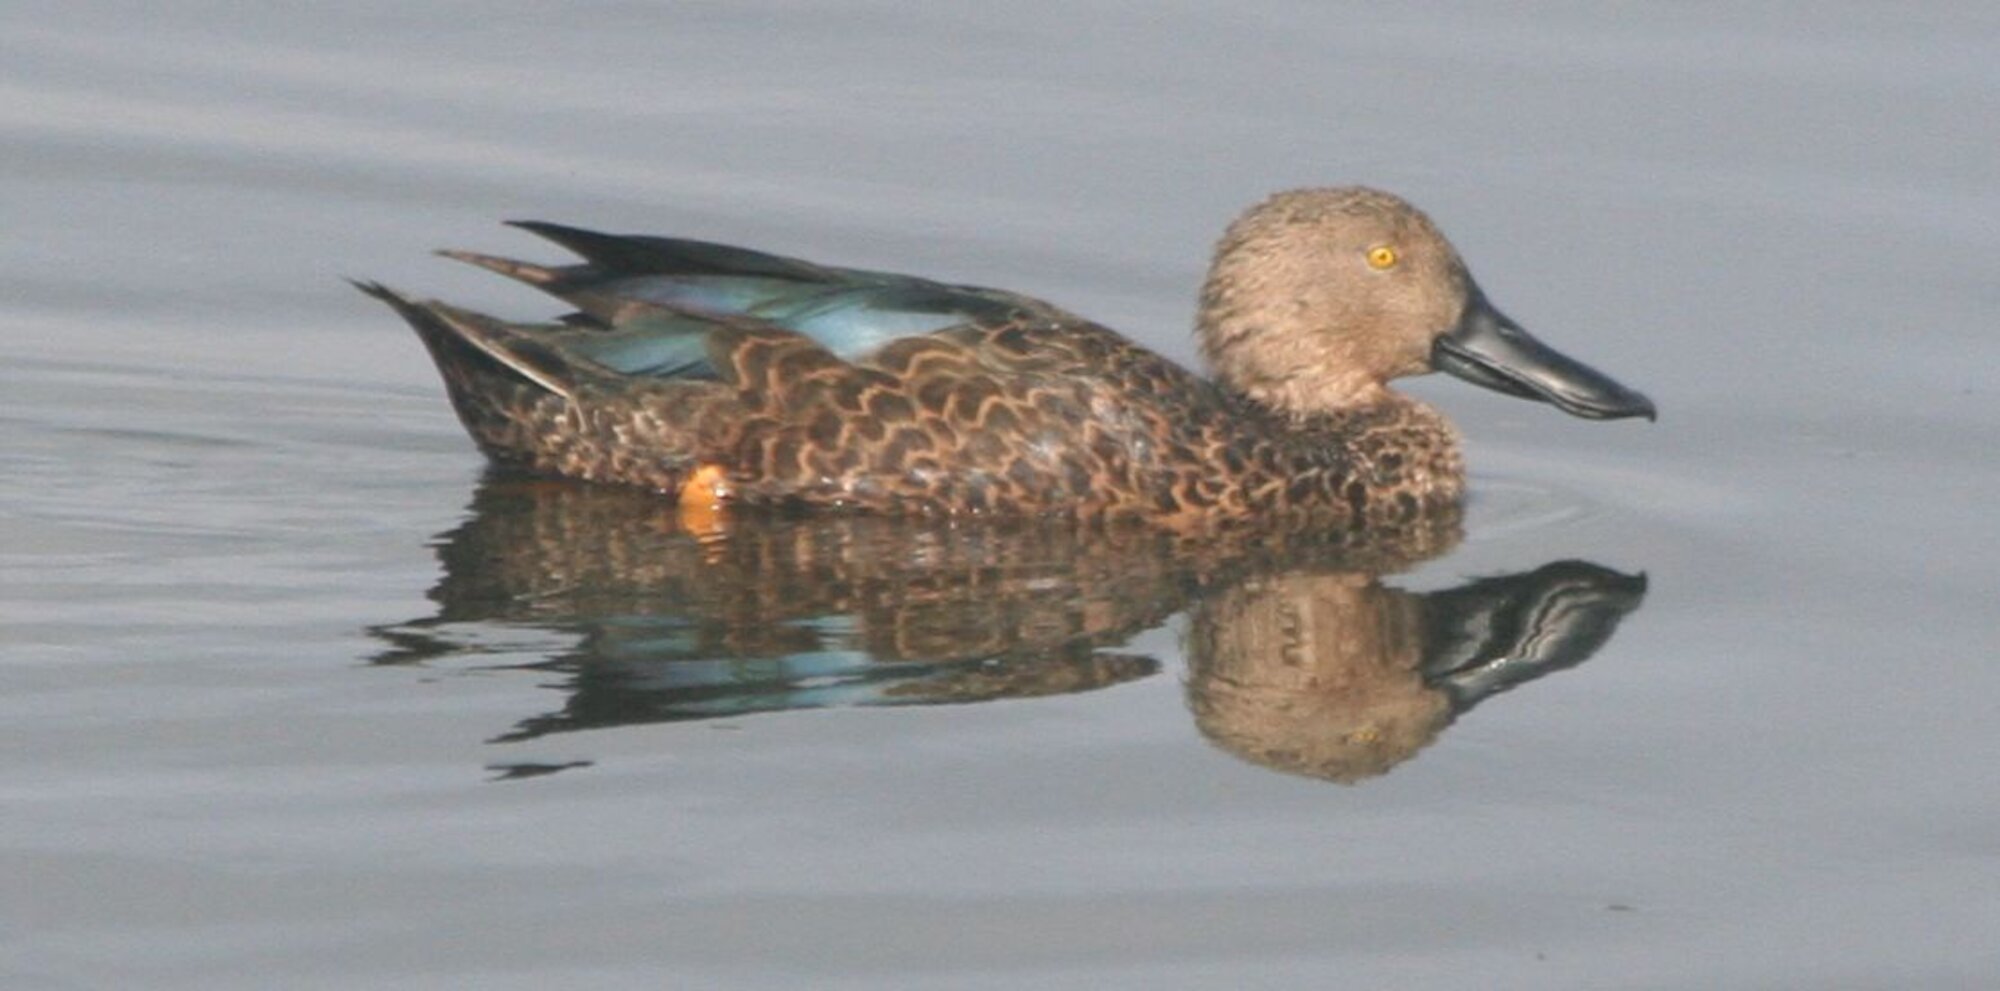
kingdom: Animalia
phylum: Chordata
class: Aves
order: Anseriformes
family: Anatidae
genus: Spatula
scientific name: Spatula smithii
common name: Cape shoveler
